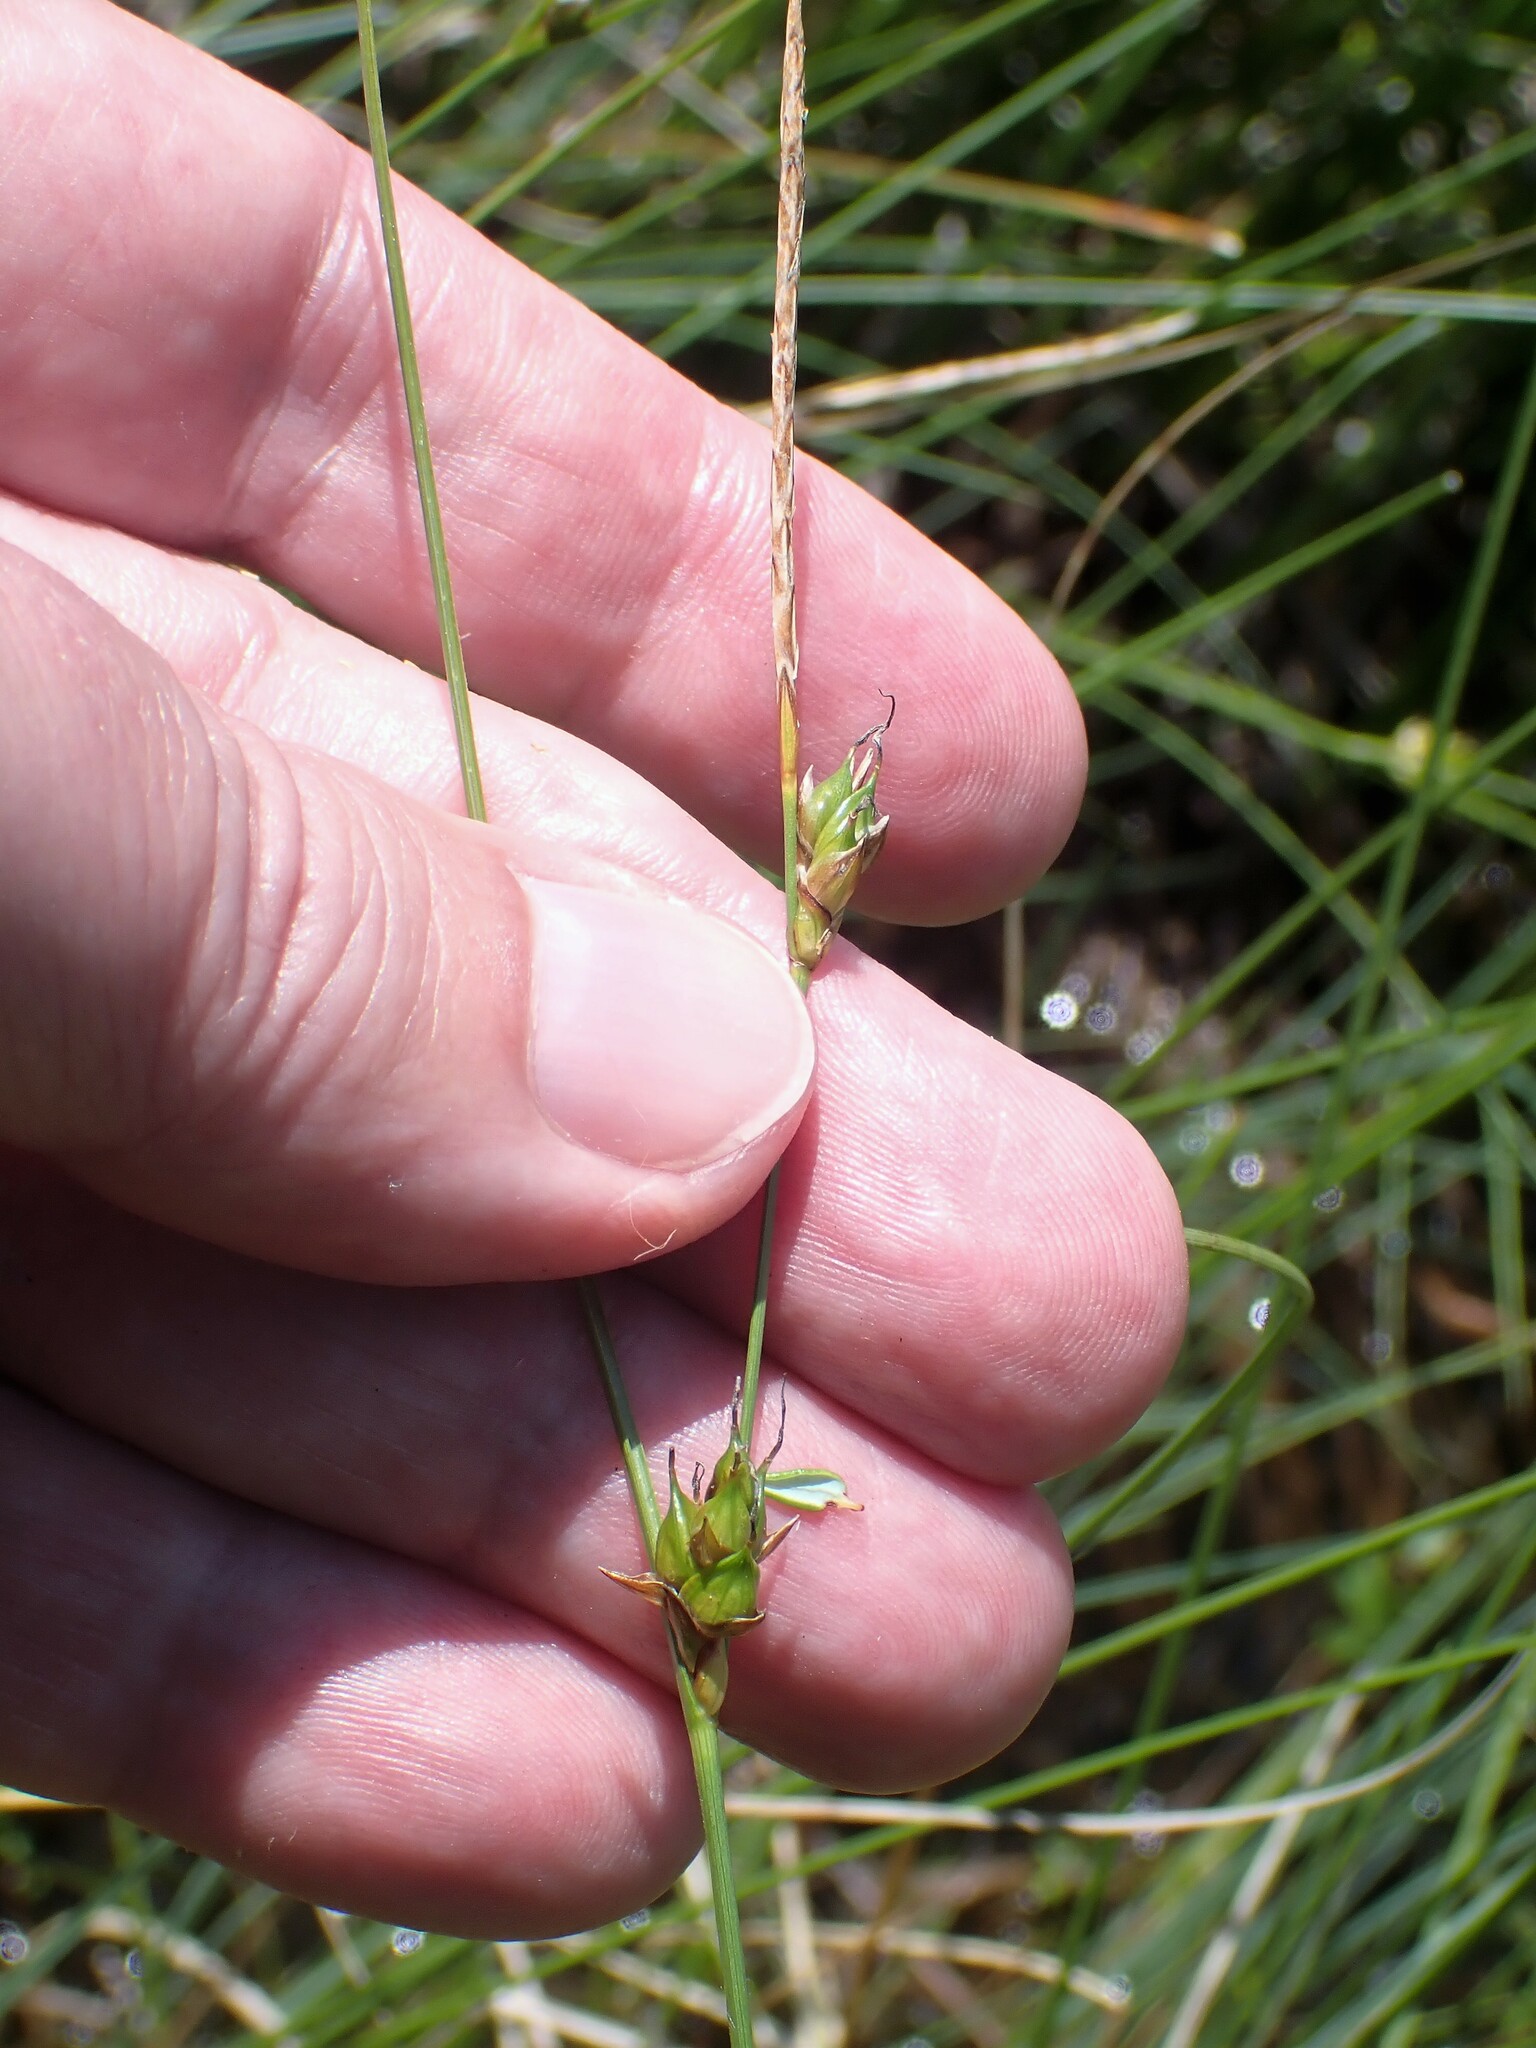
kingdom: Plantae
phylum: Tracheophyta
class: Liliopsida
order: Poales
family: Cyperaceae
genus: Carex
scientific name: Carex oligosperma
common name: Few-seed sedge
